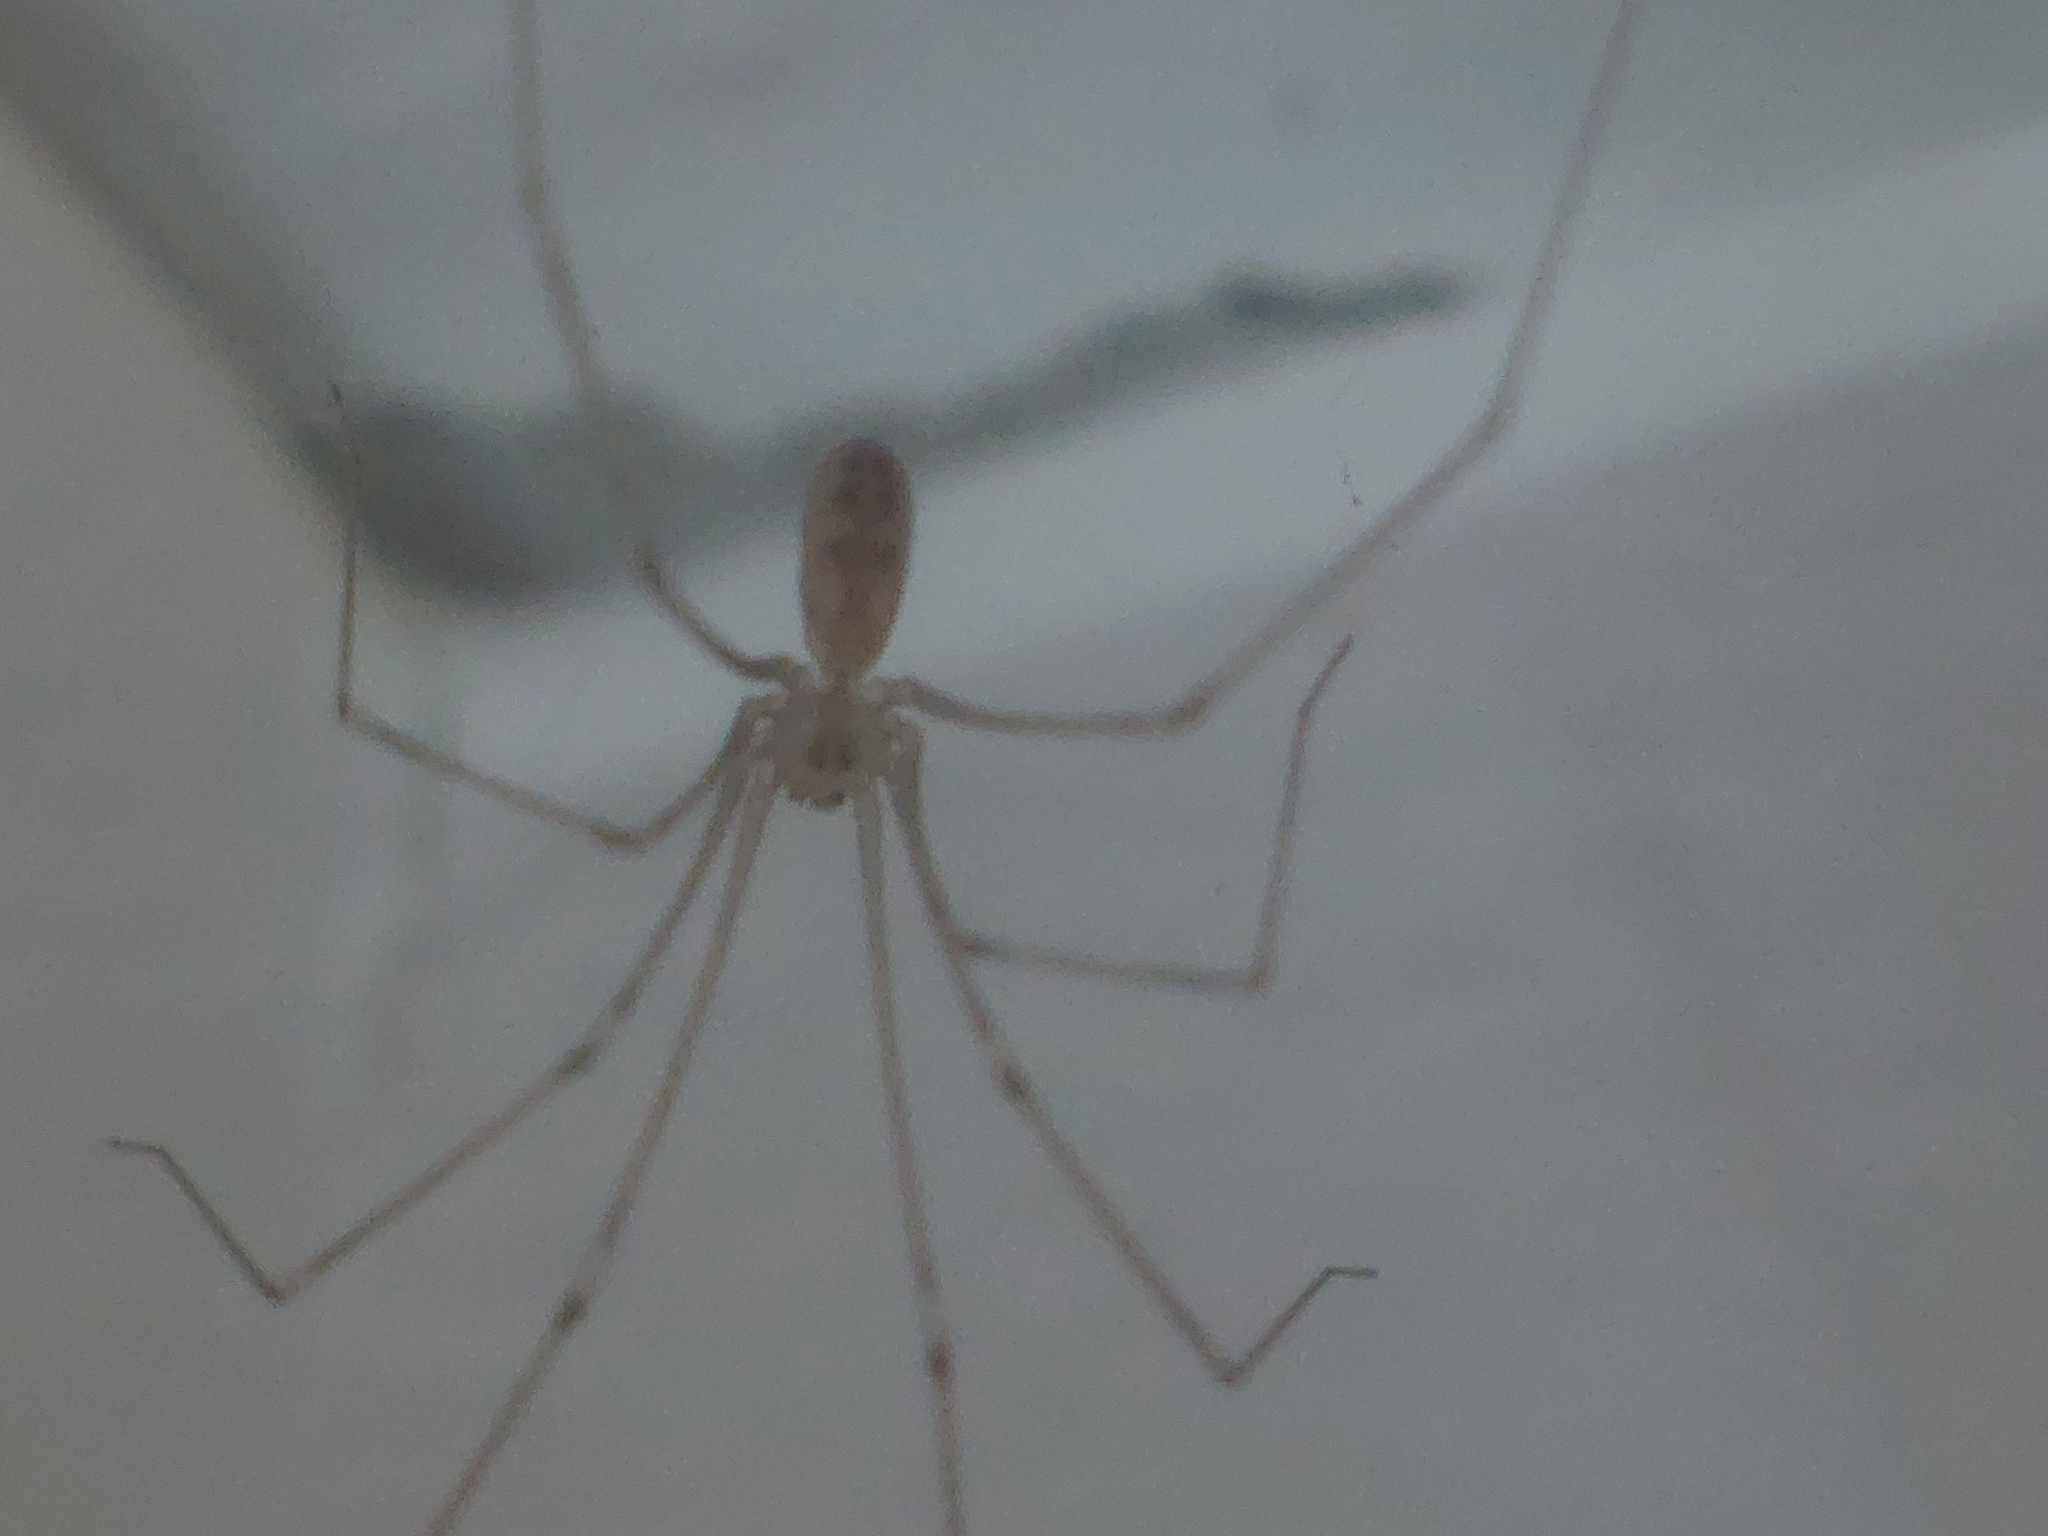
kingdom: Animalia
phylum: Arthropoda
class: Arachnida
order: Araneae
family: Pholcidae
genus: Pholcus
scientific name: Pholcus phalangioides
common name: Longbodied cellar spider
